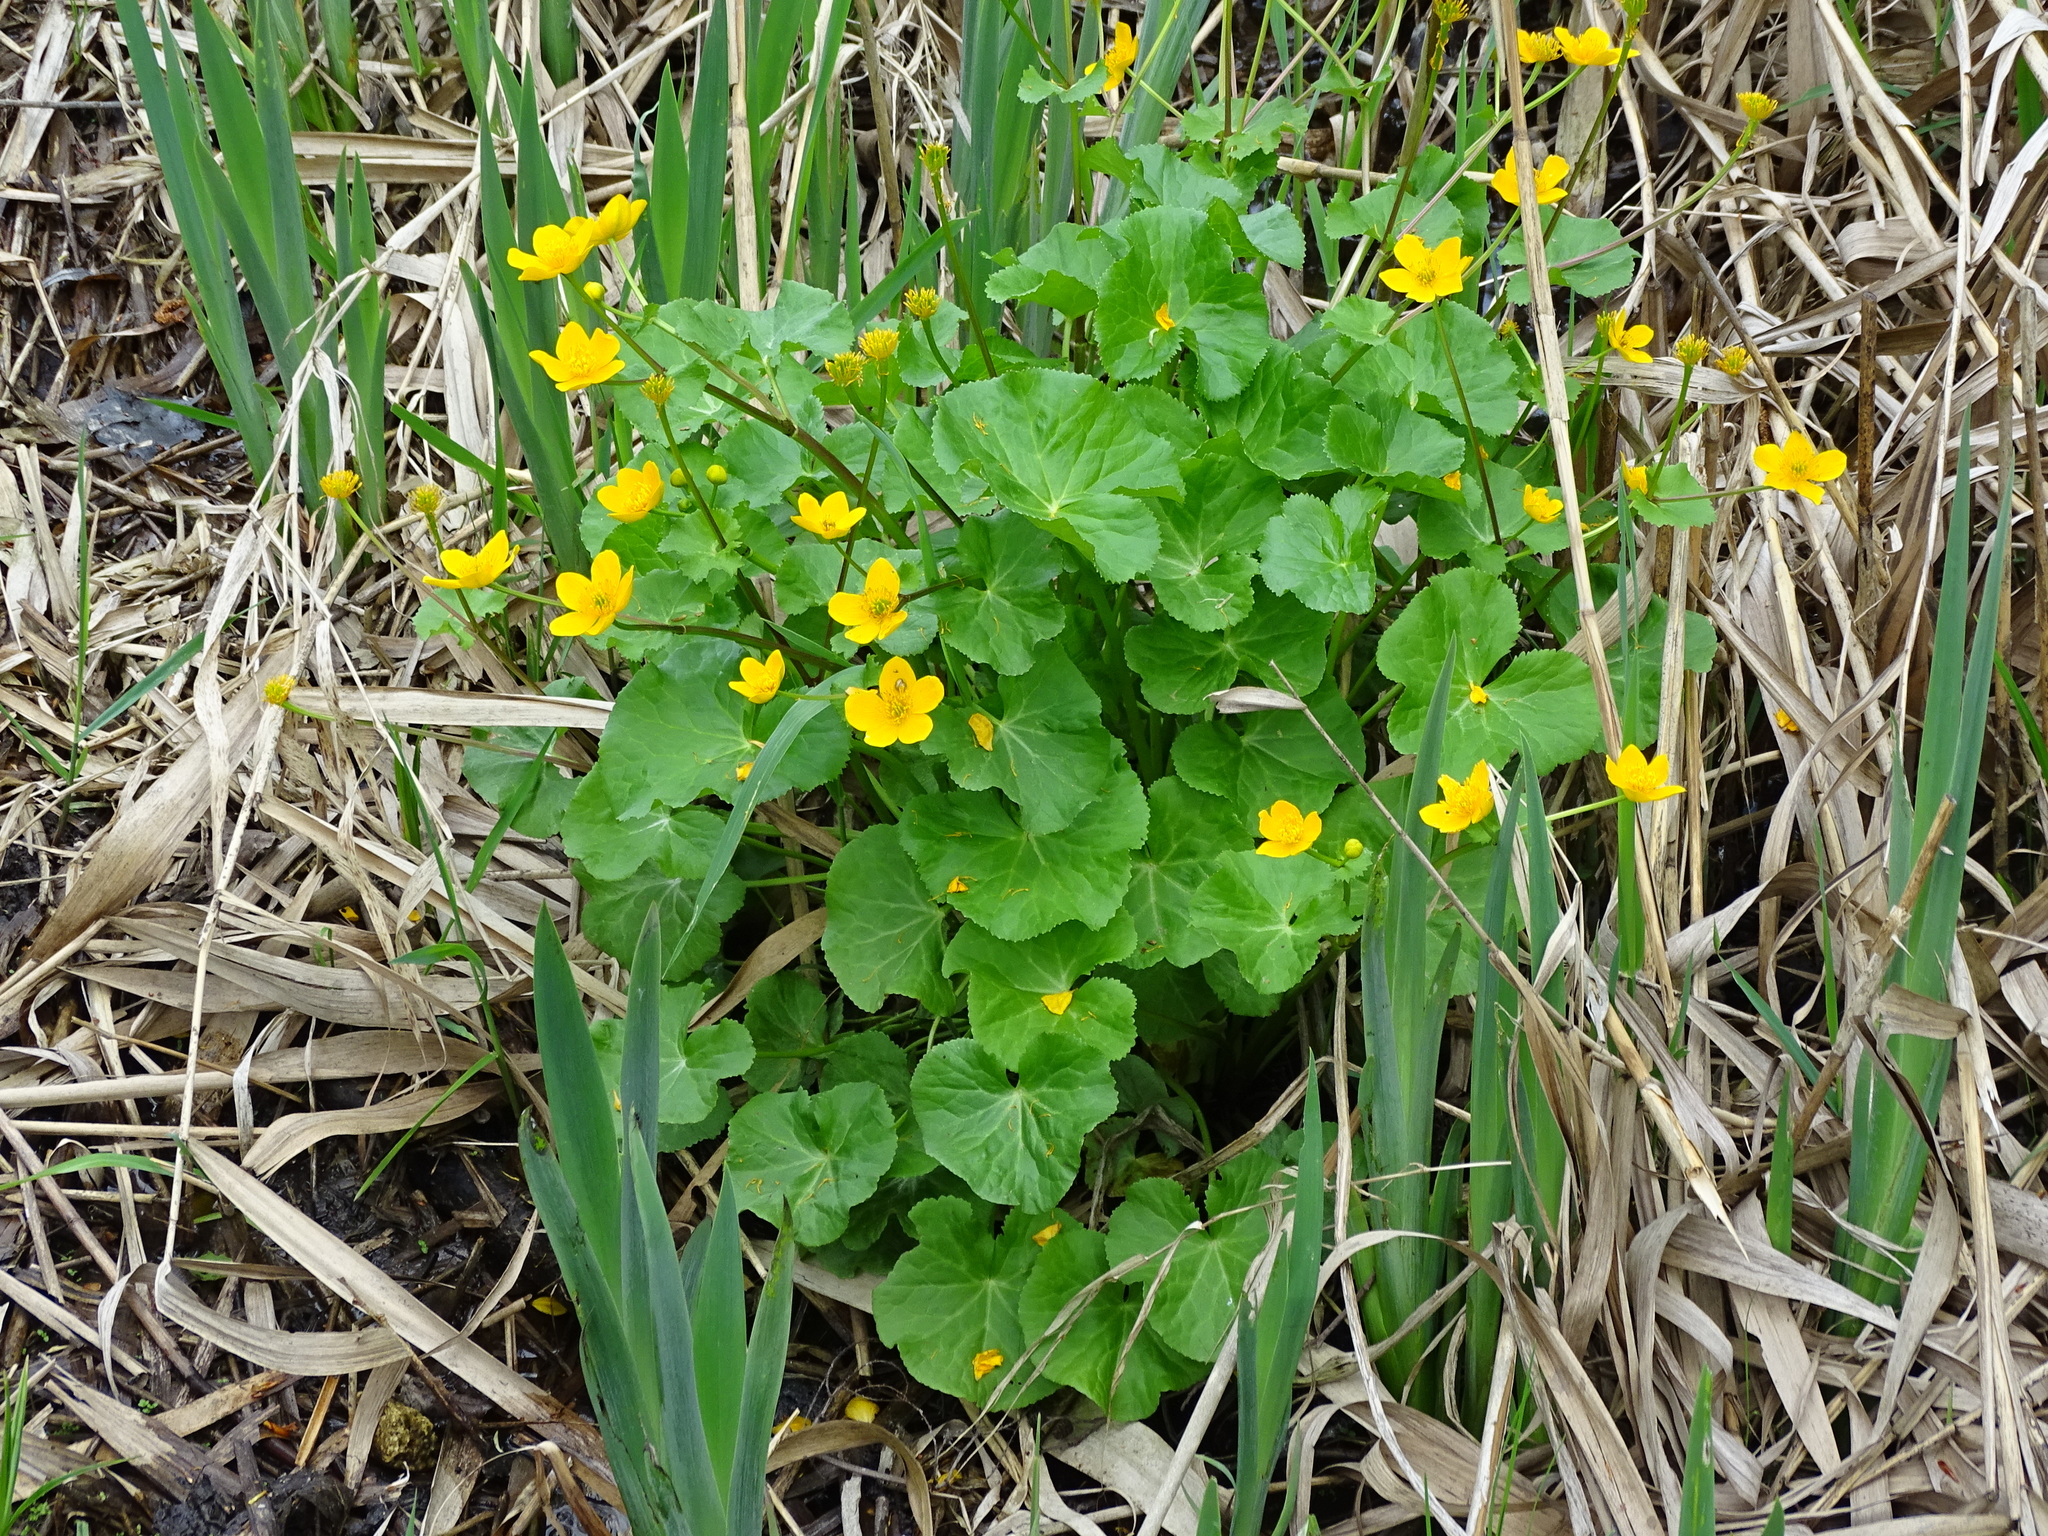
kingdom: Plantae
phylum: Tracheophyta
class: Magnoliopsida
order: Ranunculales
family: Ranunculaceae
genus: Caltha
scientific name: Caltha palustris
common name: Marsh marigold
